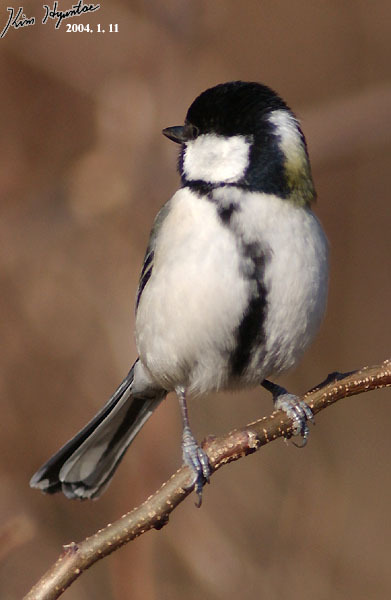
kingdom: Animalia
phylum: Chordata
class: Aves
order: Passeriformes
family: Paridae
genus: Parus
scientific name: Parus minor
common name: Japanese tit
